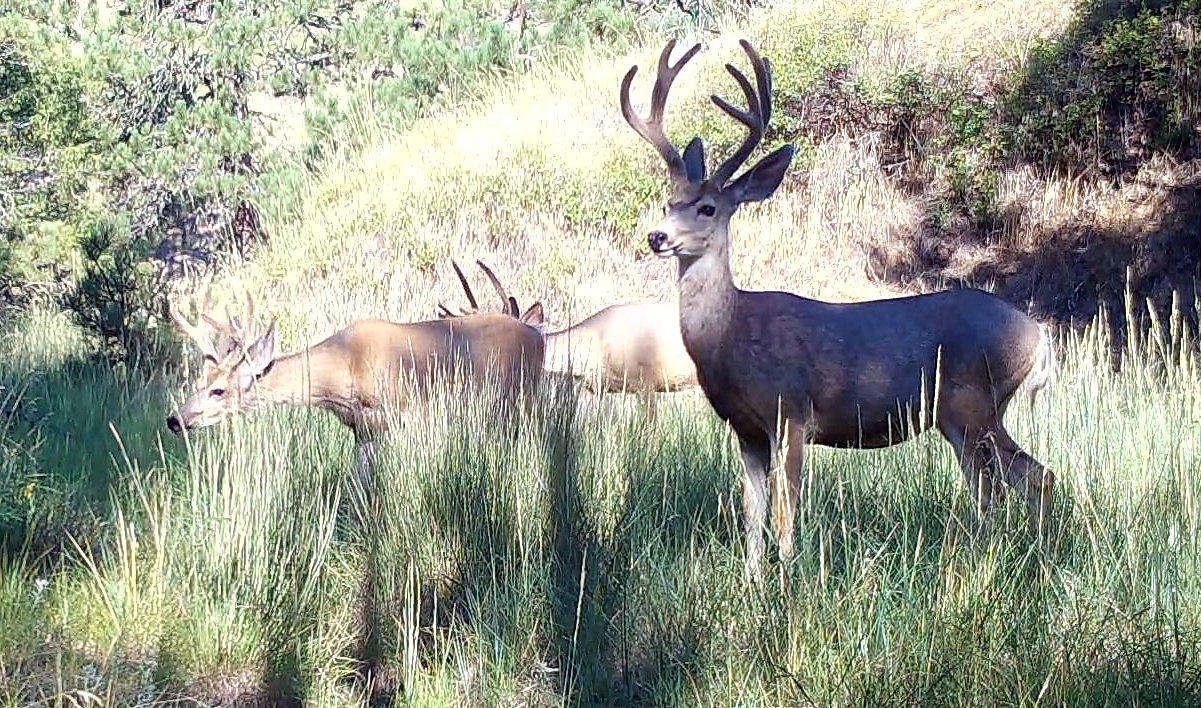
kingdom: Animalia
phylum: Chordata
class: Mammalia
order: Artiodactyla
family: Cervidae
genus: Odocoileus
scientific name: Odocoileus hemionus
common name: Mule deer
